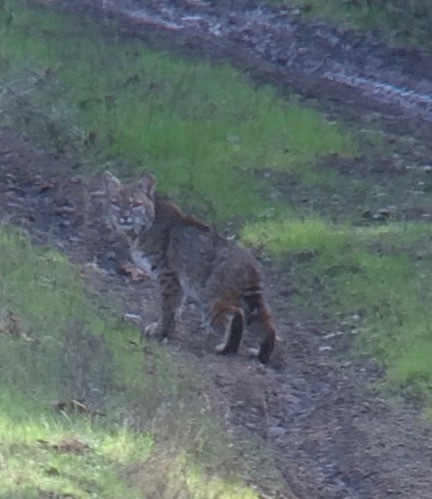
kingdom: Animalia
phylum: Chordata
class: Mammalia
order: Carnivora
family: Felidae
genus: Lynx
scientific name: Lynx rufus
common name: Bobcat
